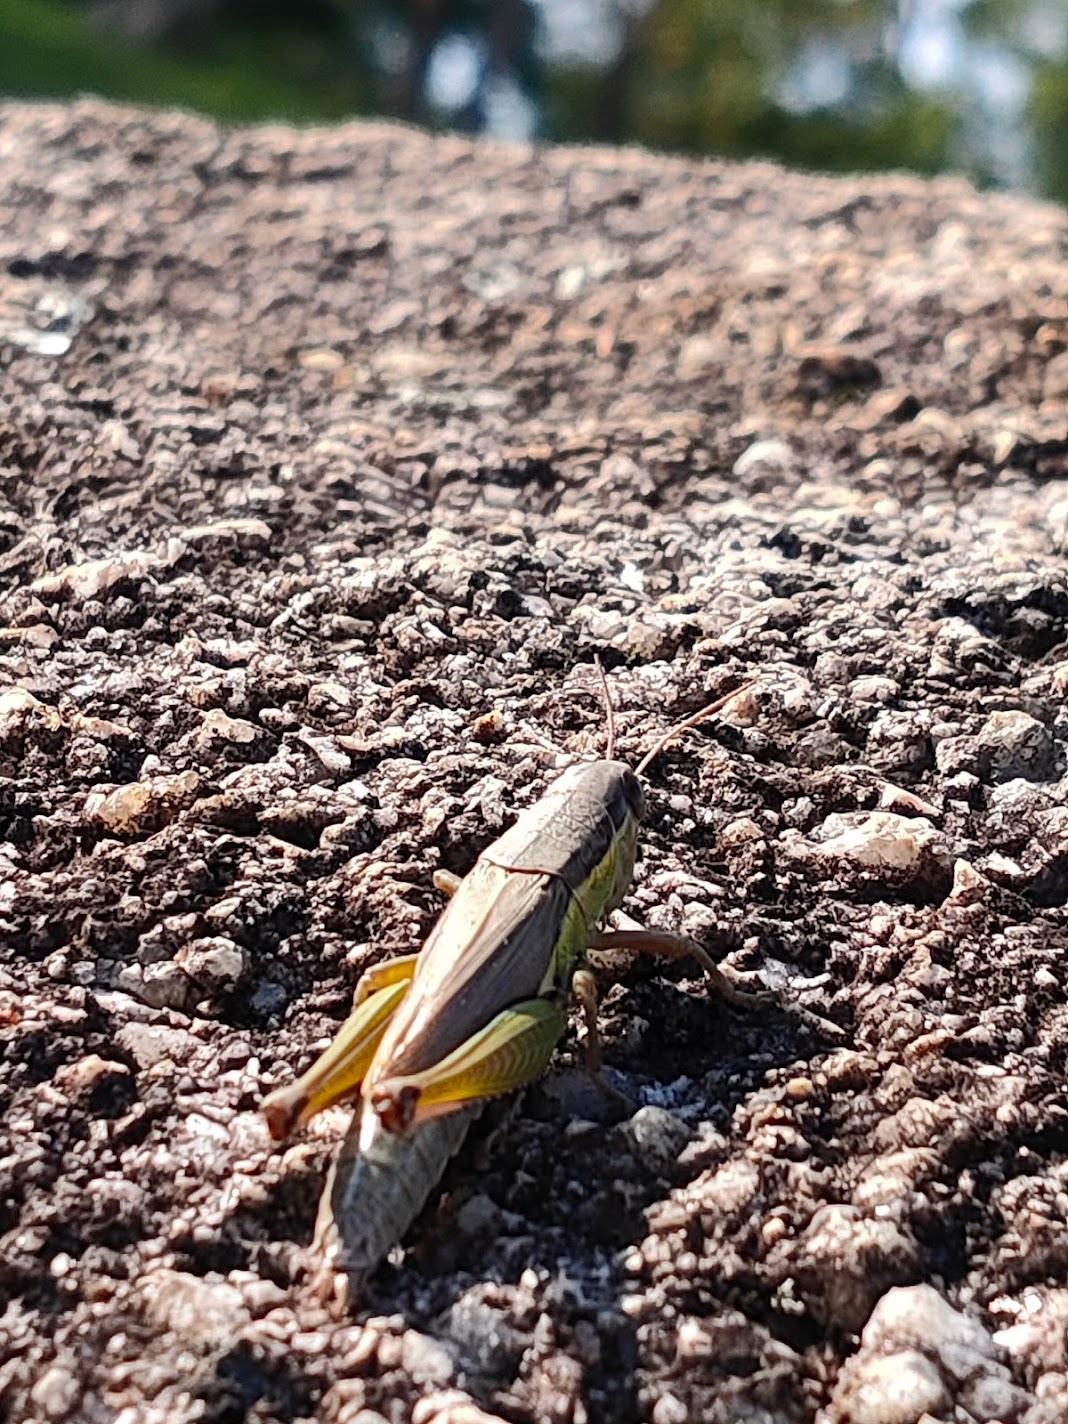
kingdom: Animalia
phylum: Arthropoda
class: Insecta
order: Orthoptera
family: Acrididae
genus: Oxya
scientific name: Oxya yezoensis
